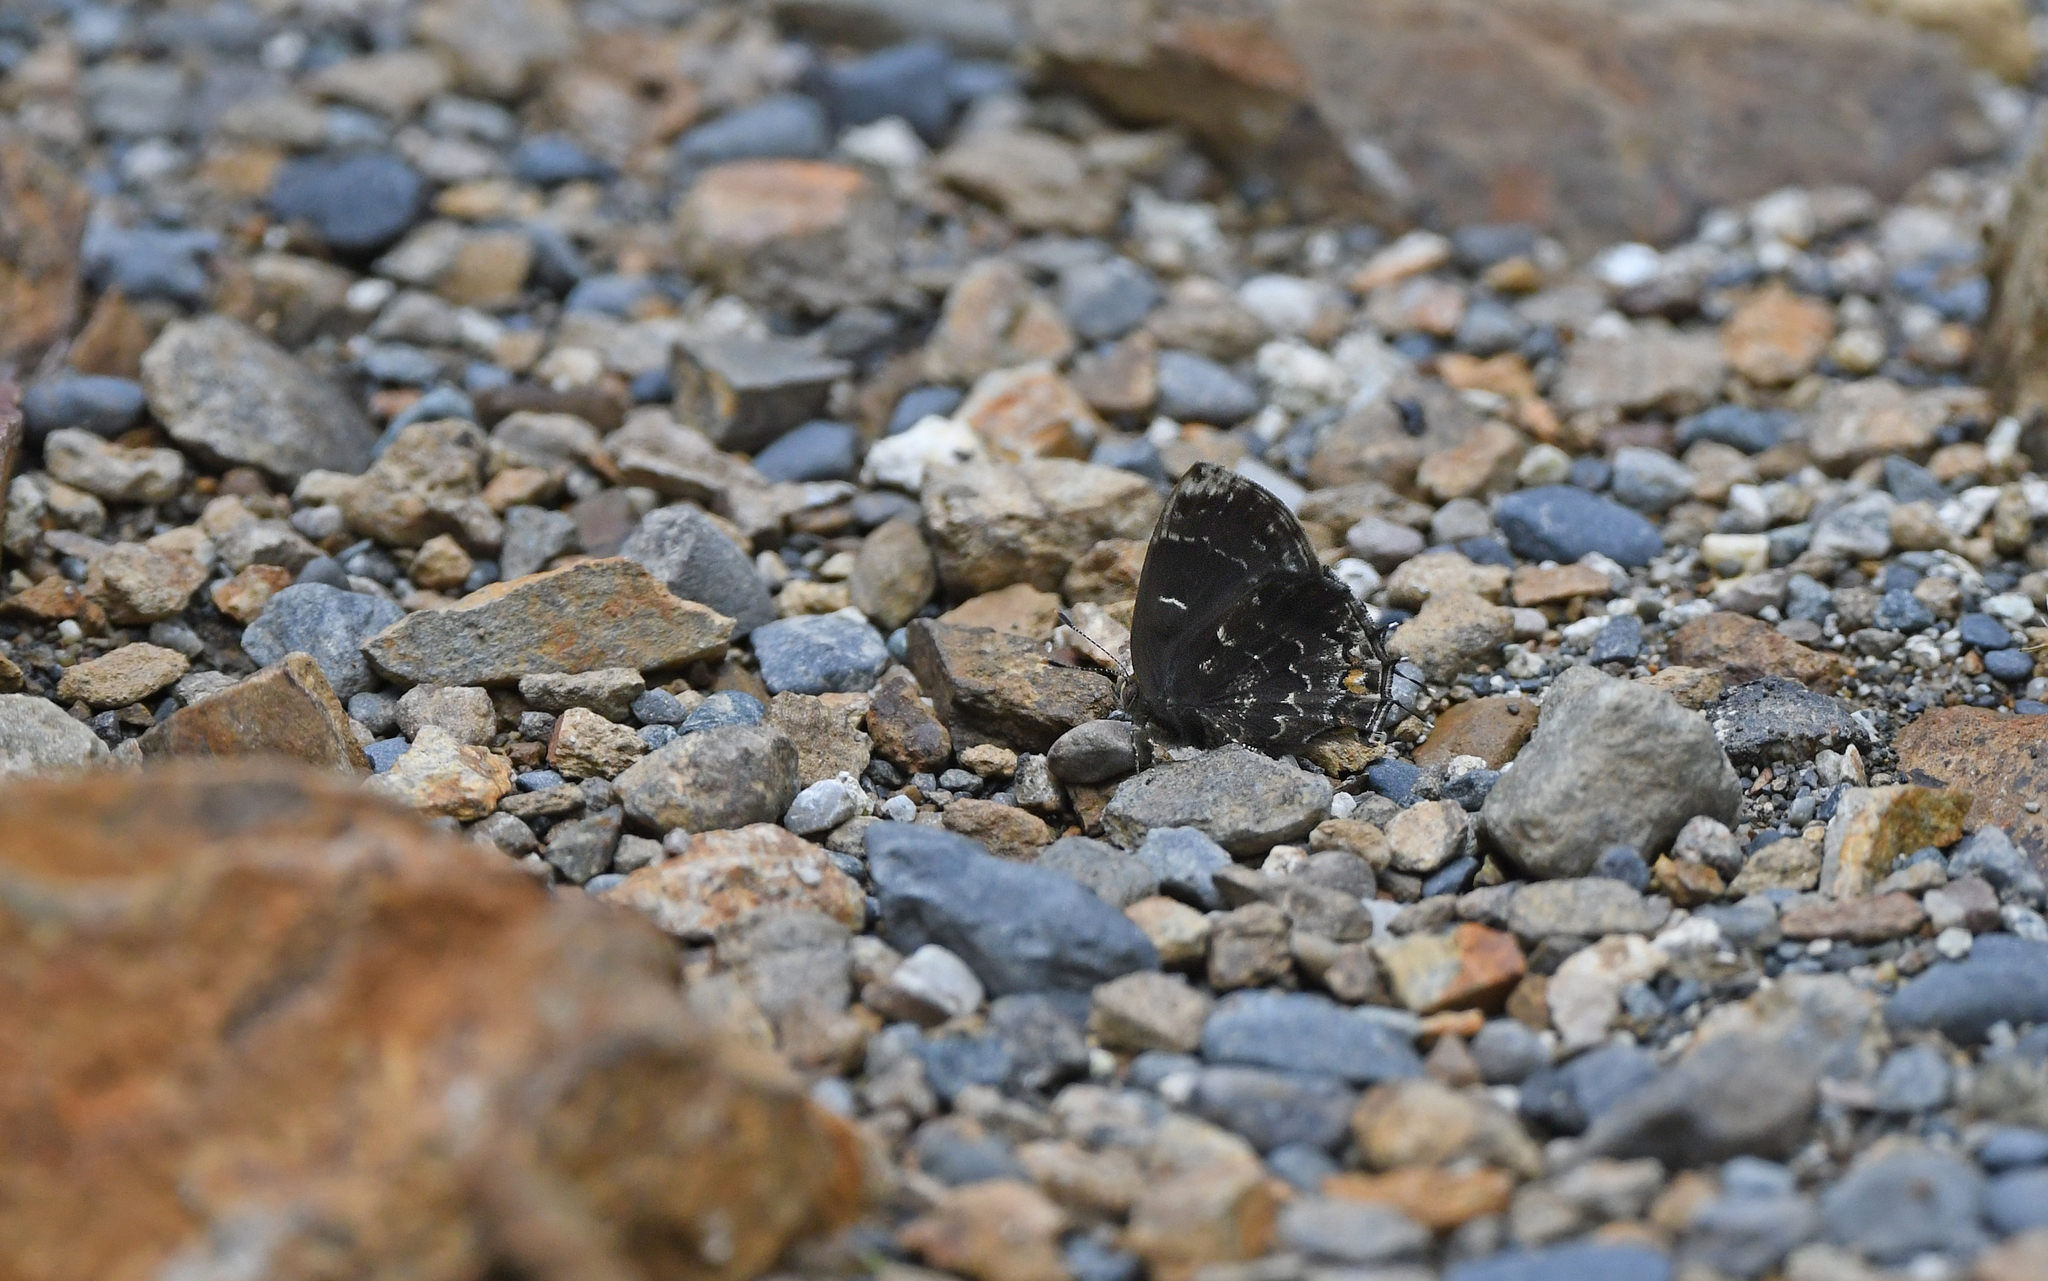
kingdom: Animalia
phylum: Arthropoda
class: Insecta
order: Lepidoptera
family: Lycaenidae
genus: Ocaria
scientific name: Ocaria ocrisia
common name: Black hairstreak
